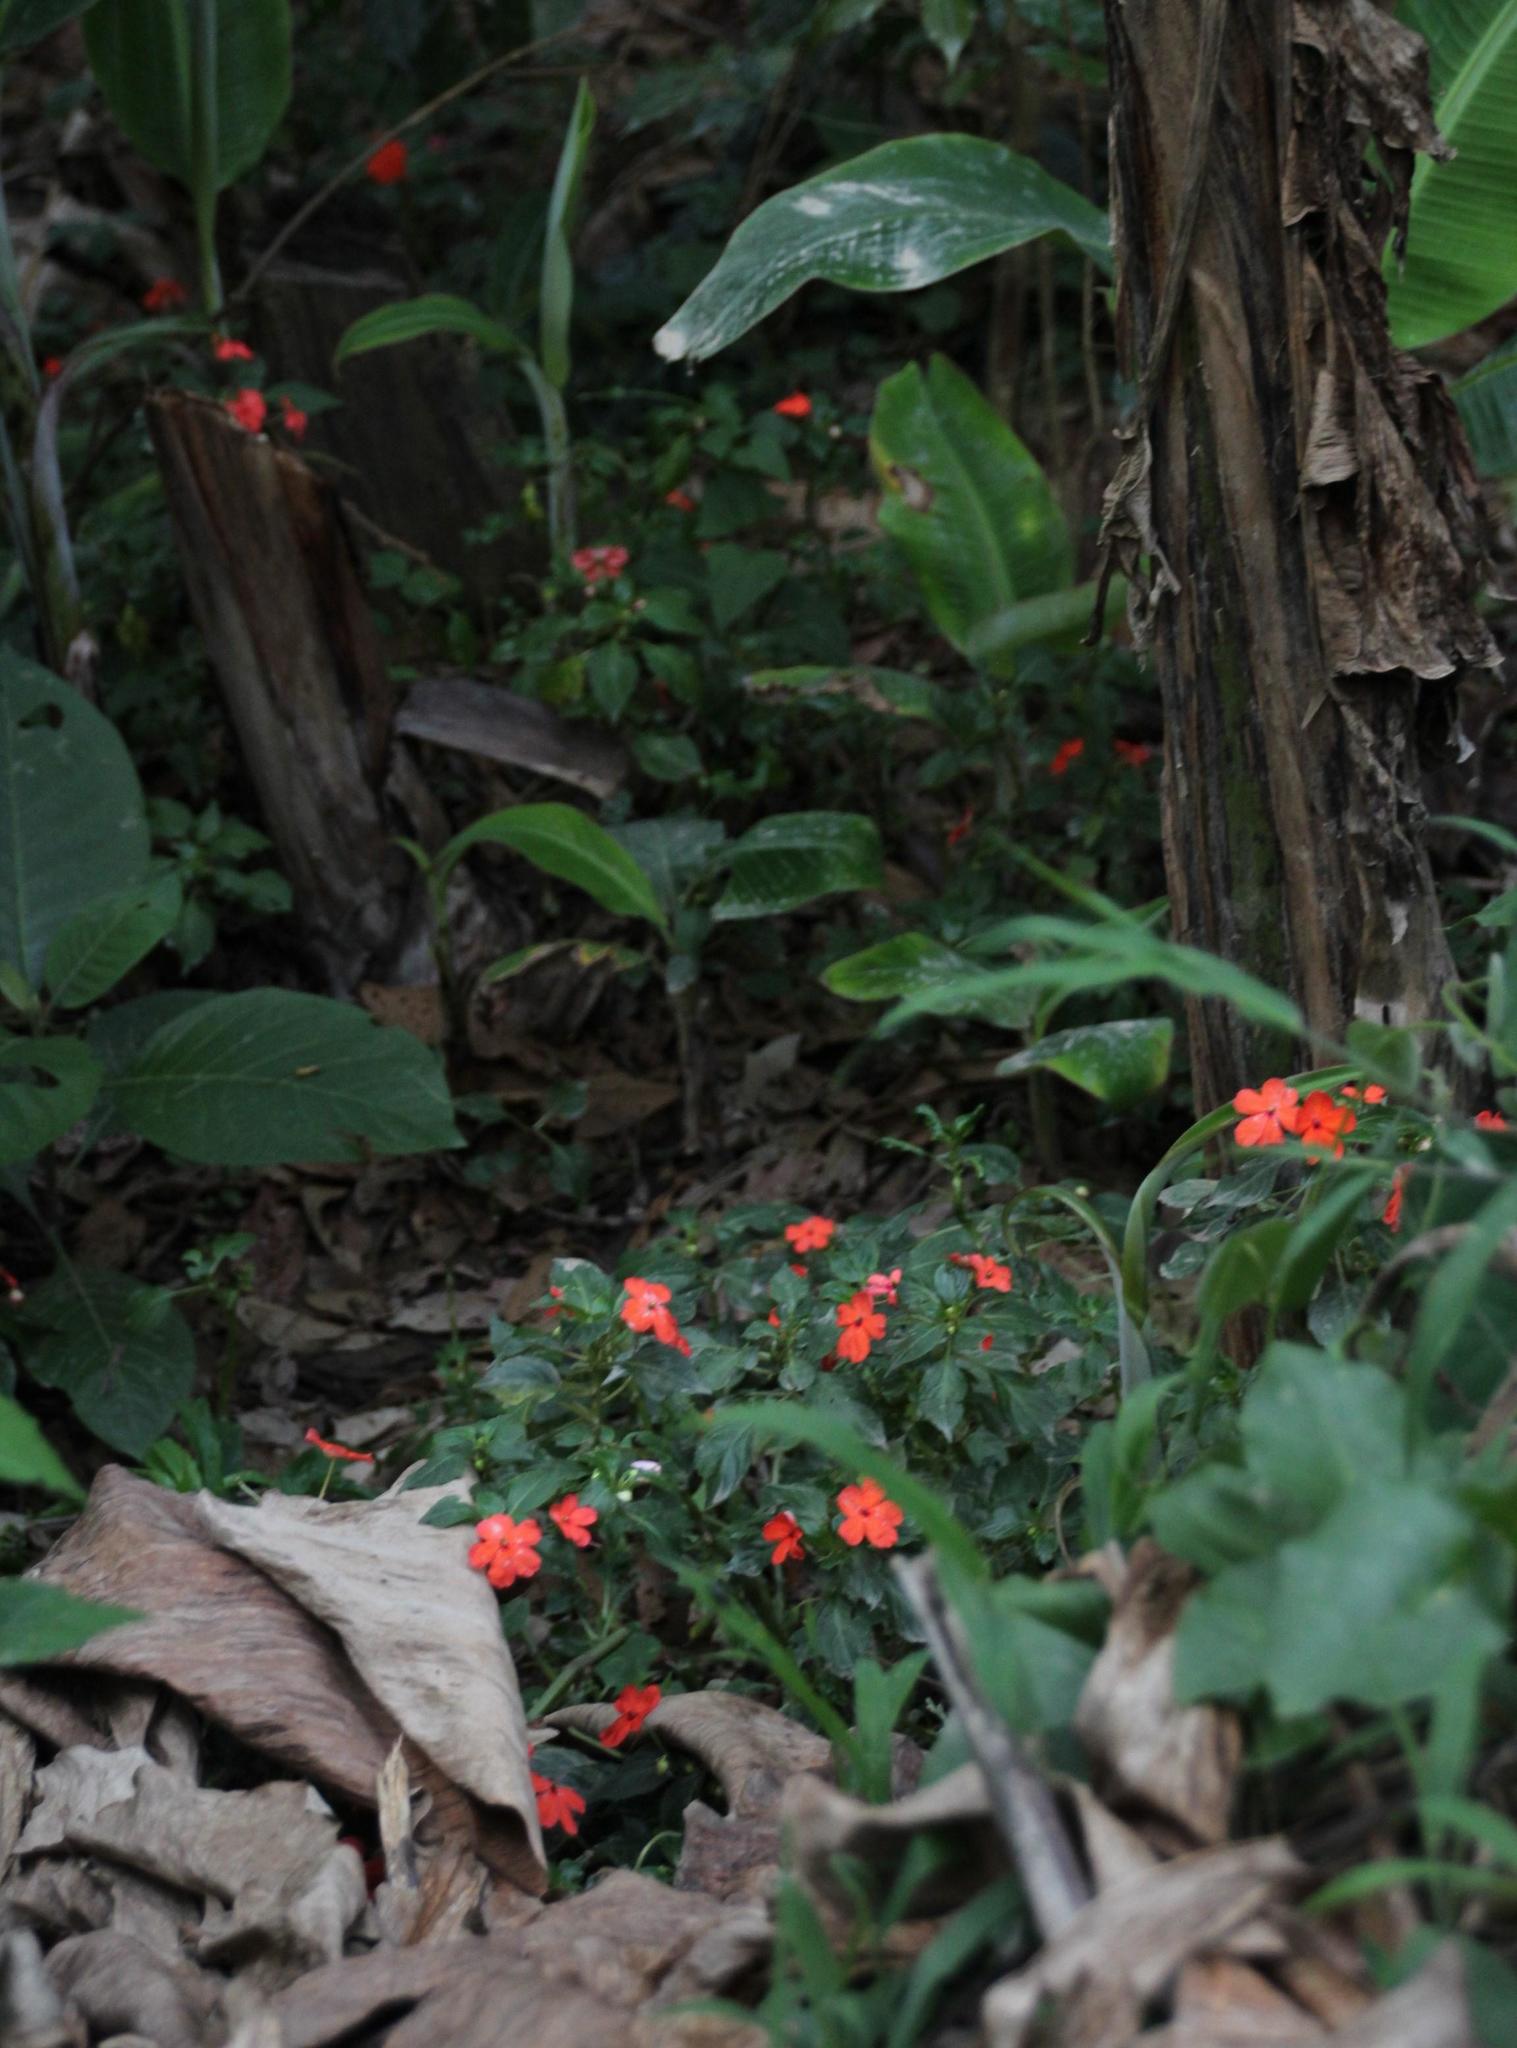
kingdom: Plantae
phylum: Tracheophyta
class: Magnoliopsida
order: Ericales
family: Balsaminaceae
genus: Impatiens
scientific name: Impatiens walleriana
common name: Buzzy lizzy
